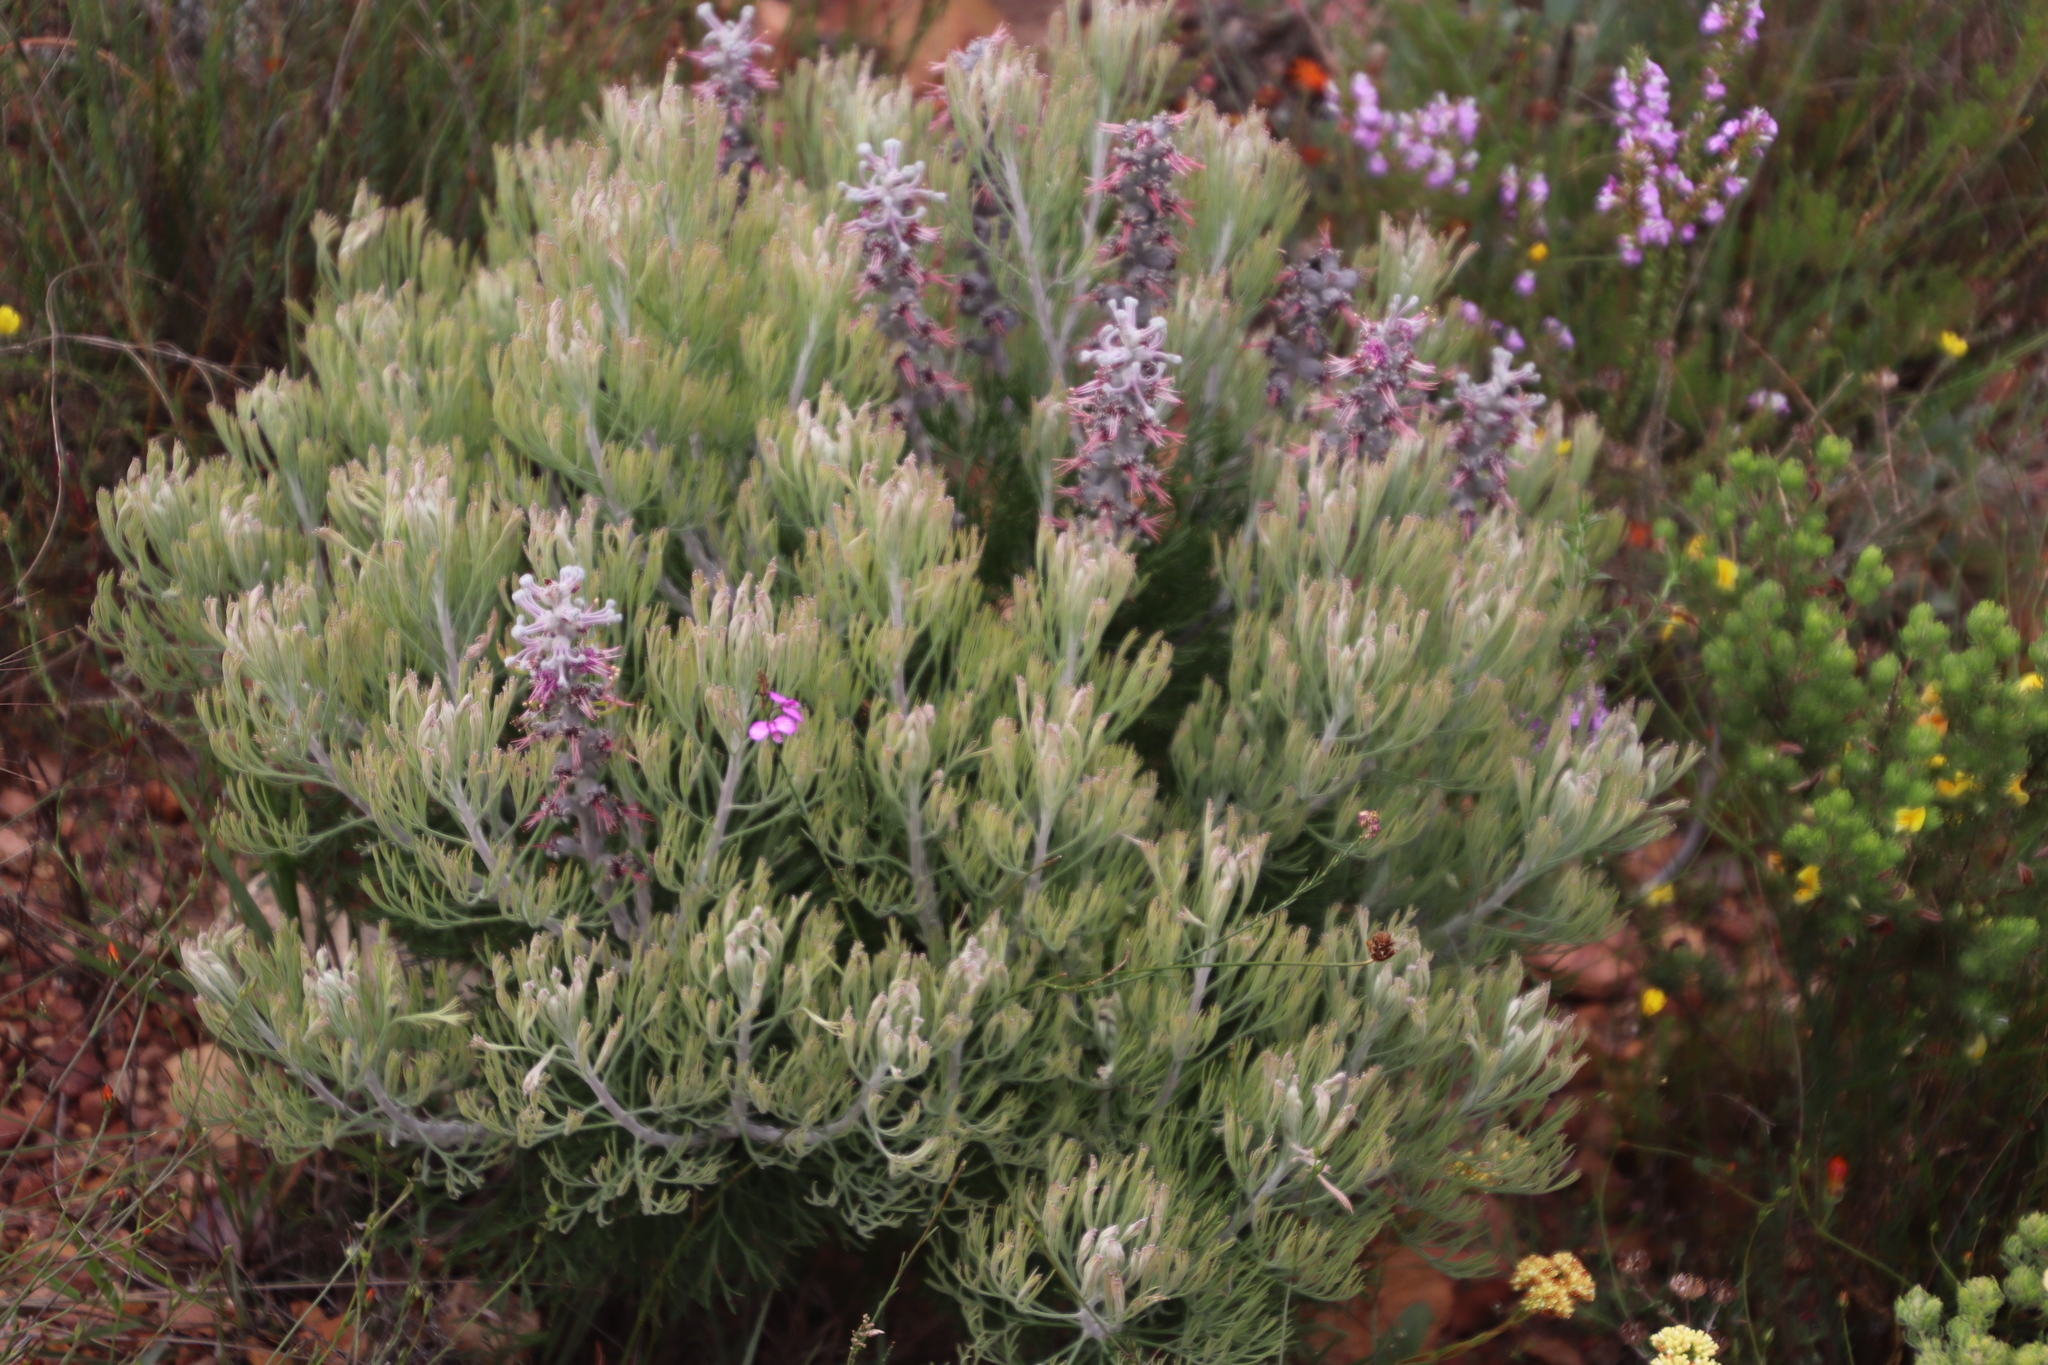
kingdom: Plantae
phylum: Tracheophyta
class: Magnoliopsida
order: Proteales
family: Proteaceae
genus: Paranomus
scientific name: Paranomus dispersus
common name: Long-head sceptre
